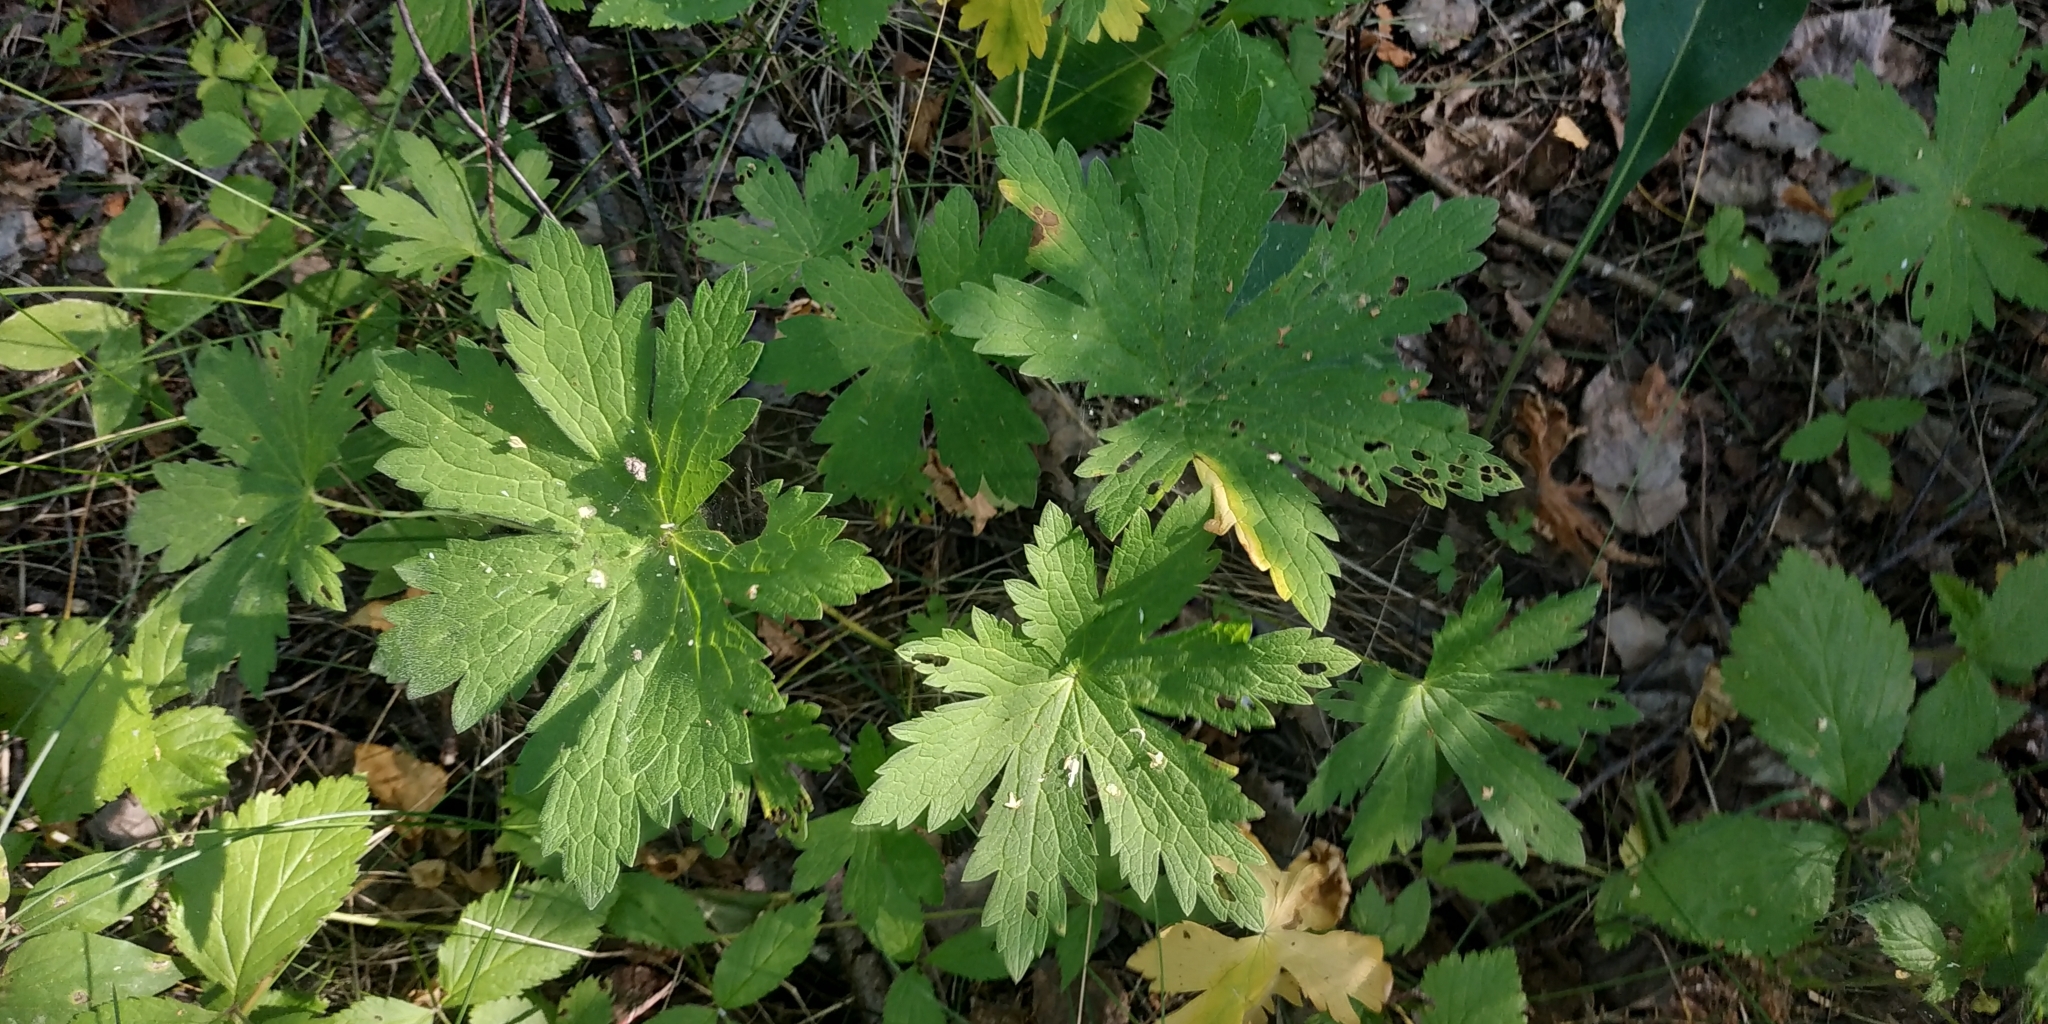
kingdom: Plantae
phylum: Tracheophyta
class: Magnoliopsida
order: Geraniales
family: Geraniaceae
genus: Geranium
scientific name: Geranium sylvaticum
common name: Wood crane's-bill
